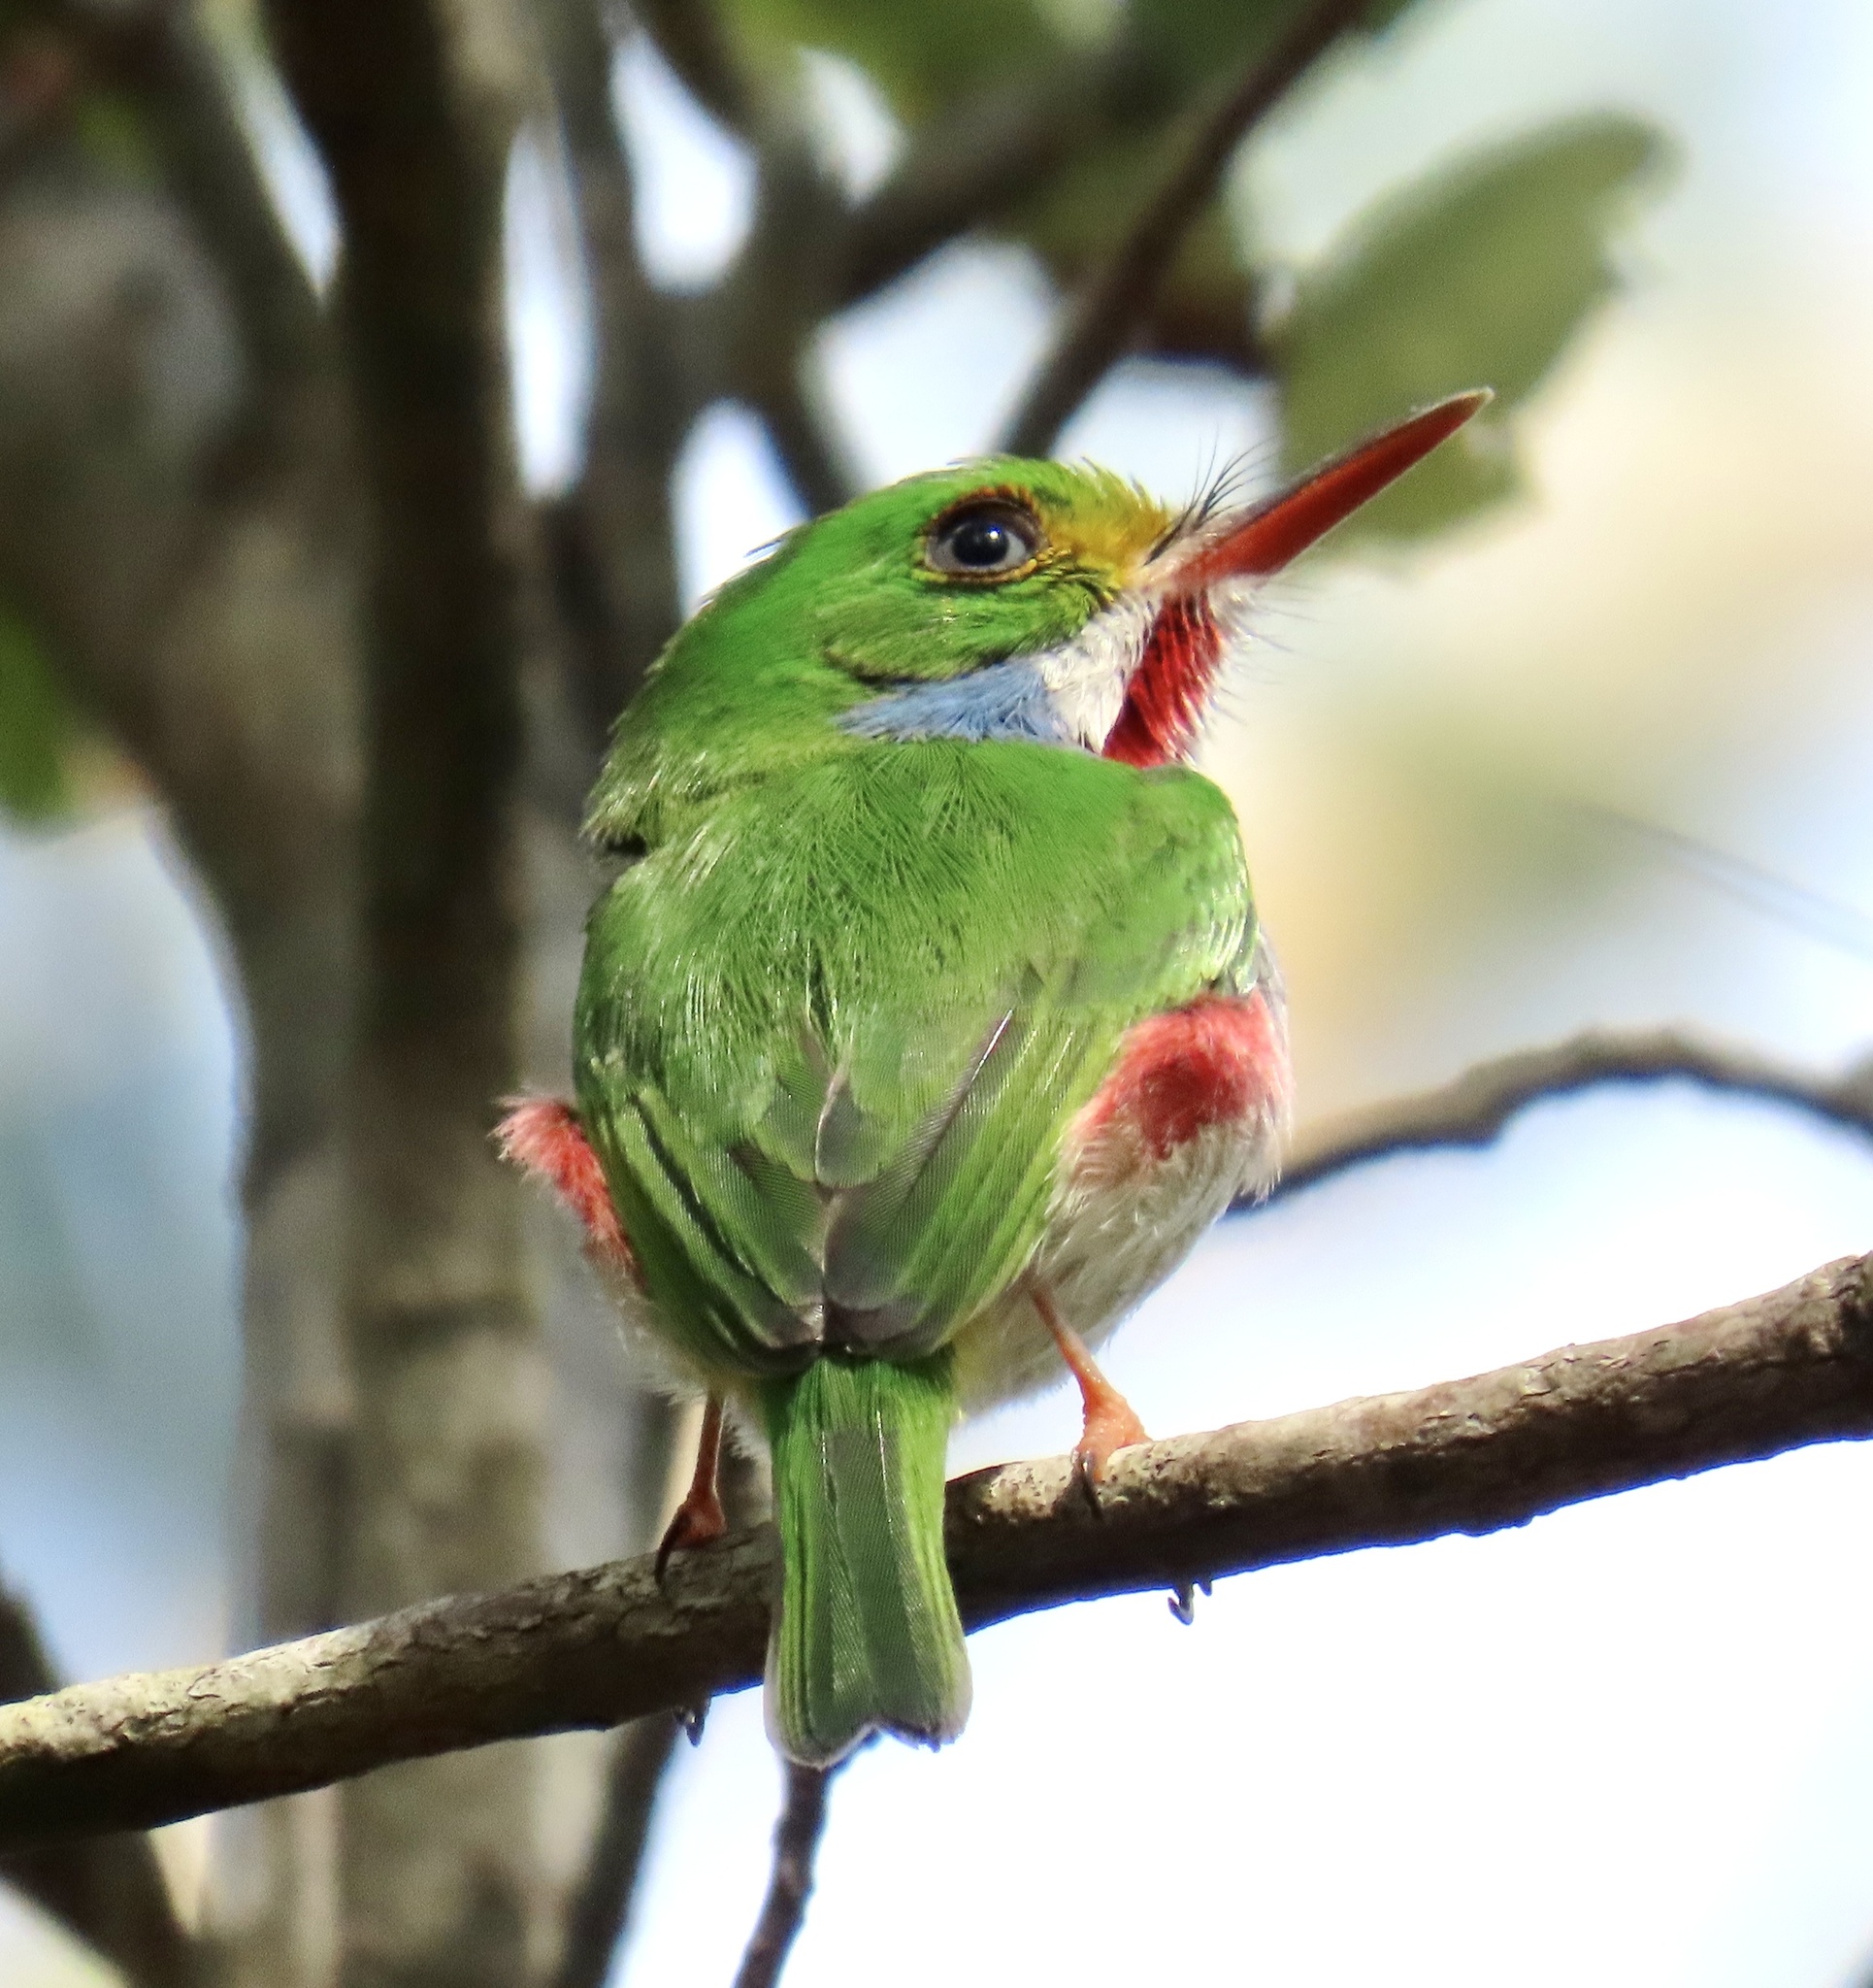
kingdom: Animalia
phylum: Chordata
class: Aves
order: Coraciiformes
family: Todidae
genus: Todus
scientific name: Todus multicolor
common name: Cuban tody
